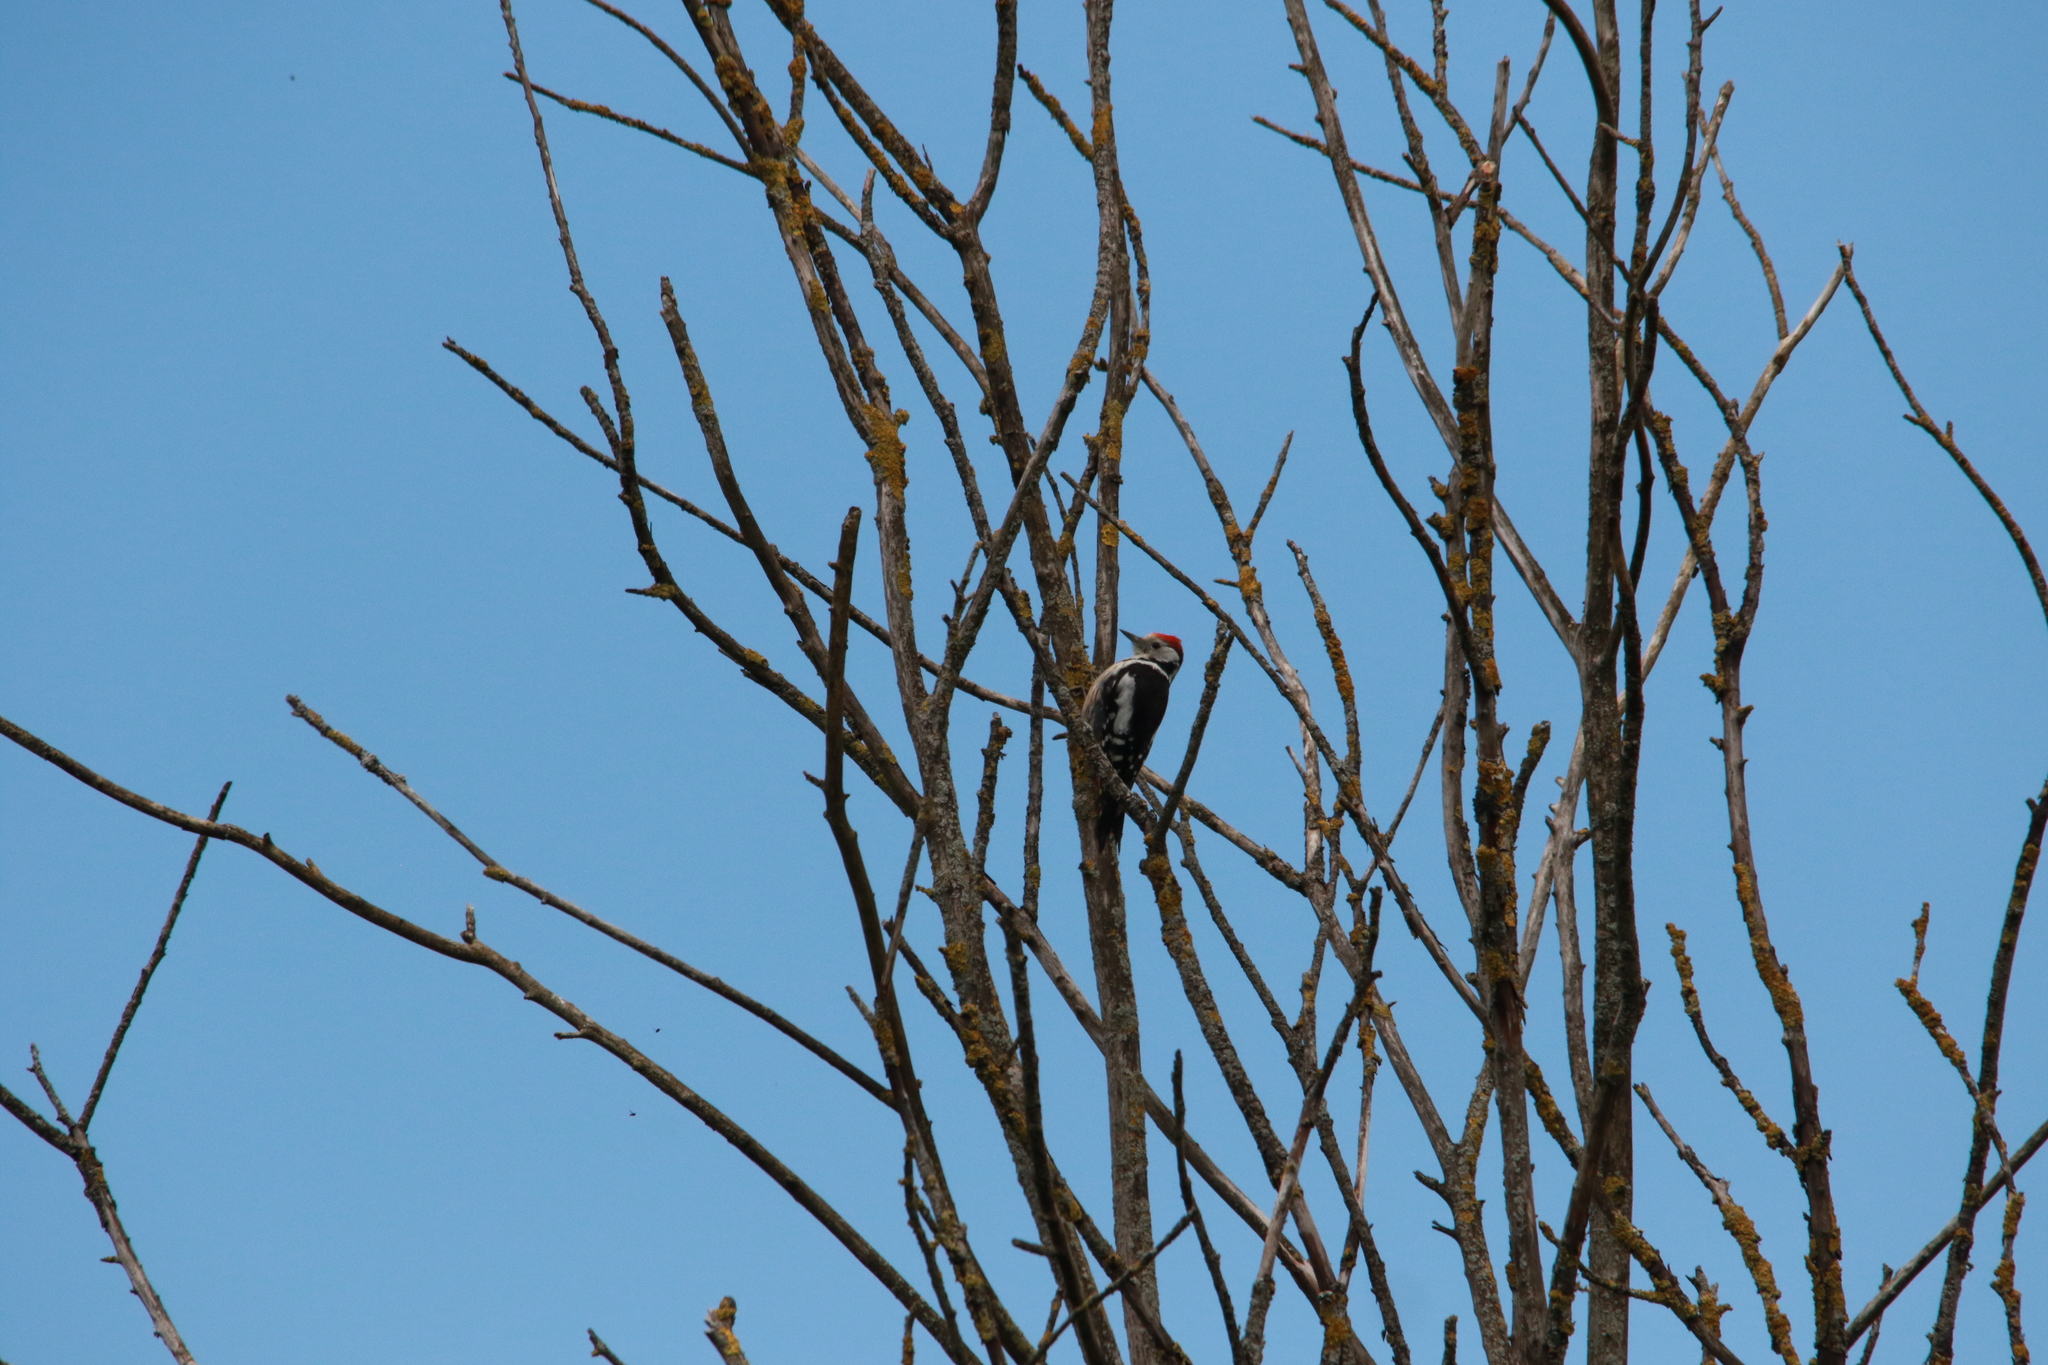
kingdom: Animalia
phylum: Chordata
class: Aves
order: Piciformes
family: Picidae
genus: Dendrocoptes
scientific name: Dendrocoptes medius
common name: Middle spotted woodpecker
